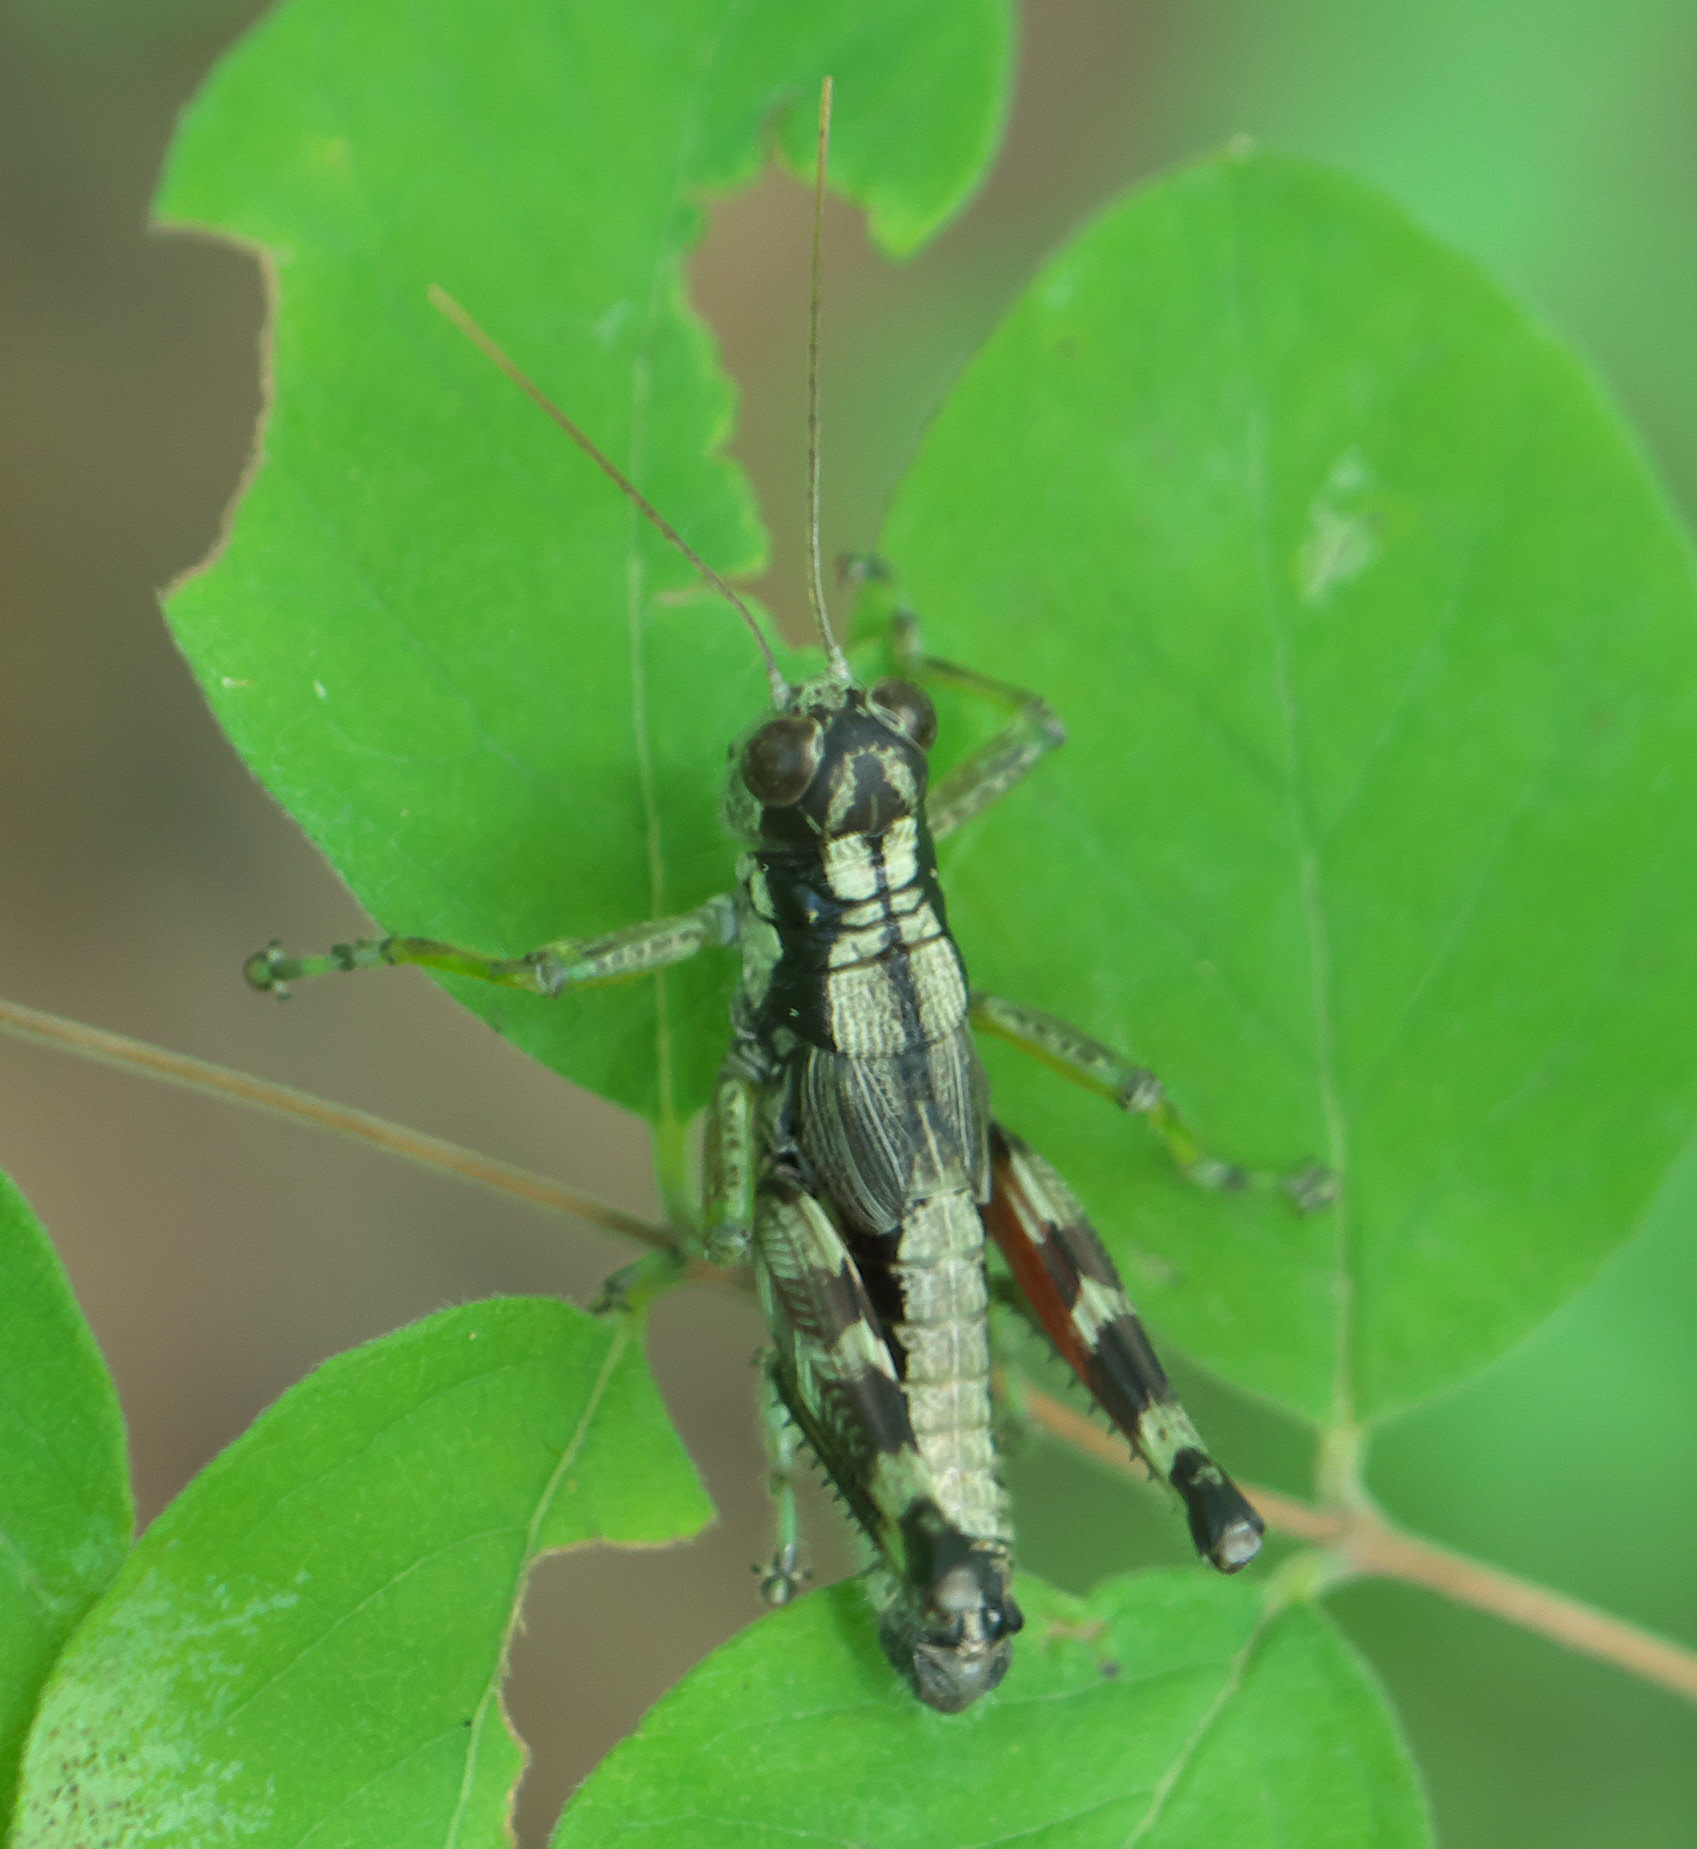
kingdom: Animalia
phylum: Arthropoda
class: Insecta
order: Orthoptera
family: Acrididae
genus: Dendrotettix
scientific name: Dendrotettix quercus
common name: Post oak grasshopper
